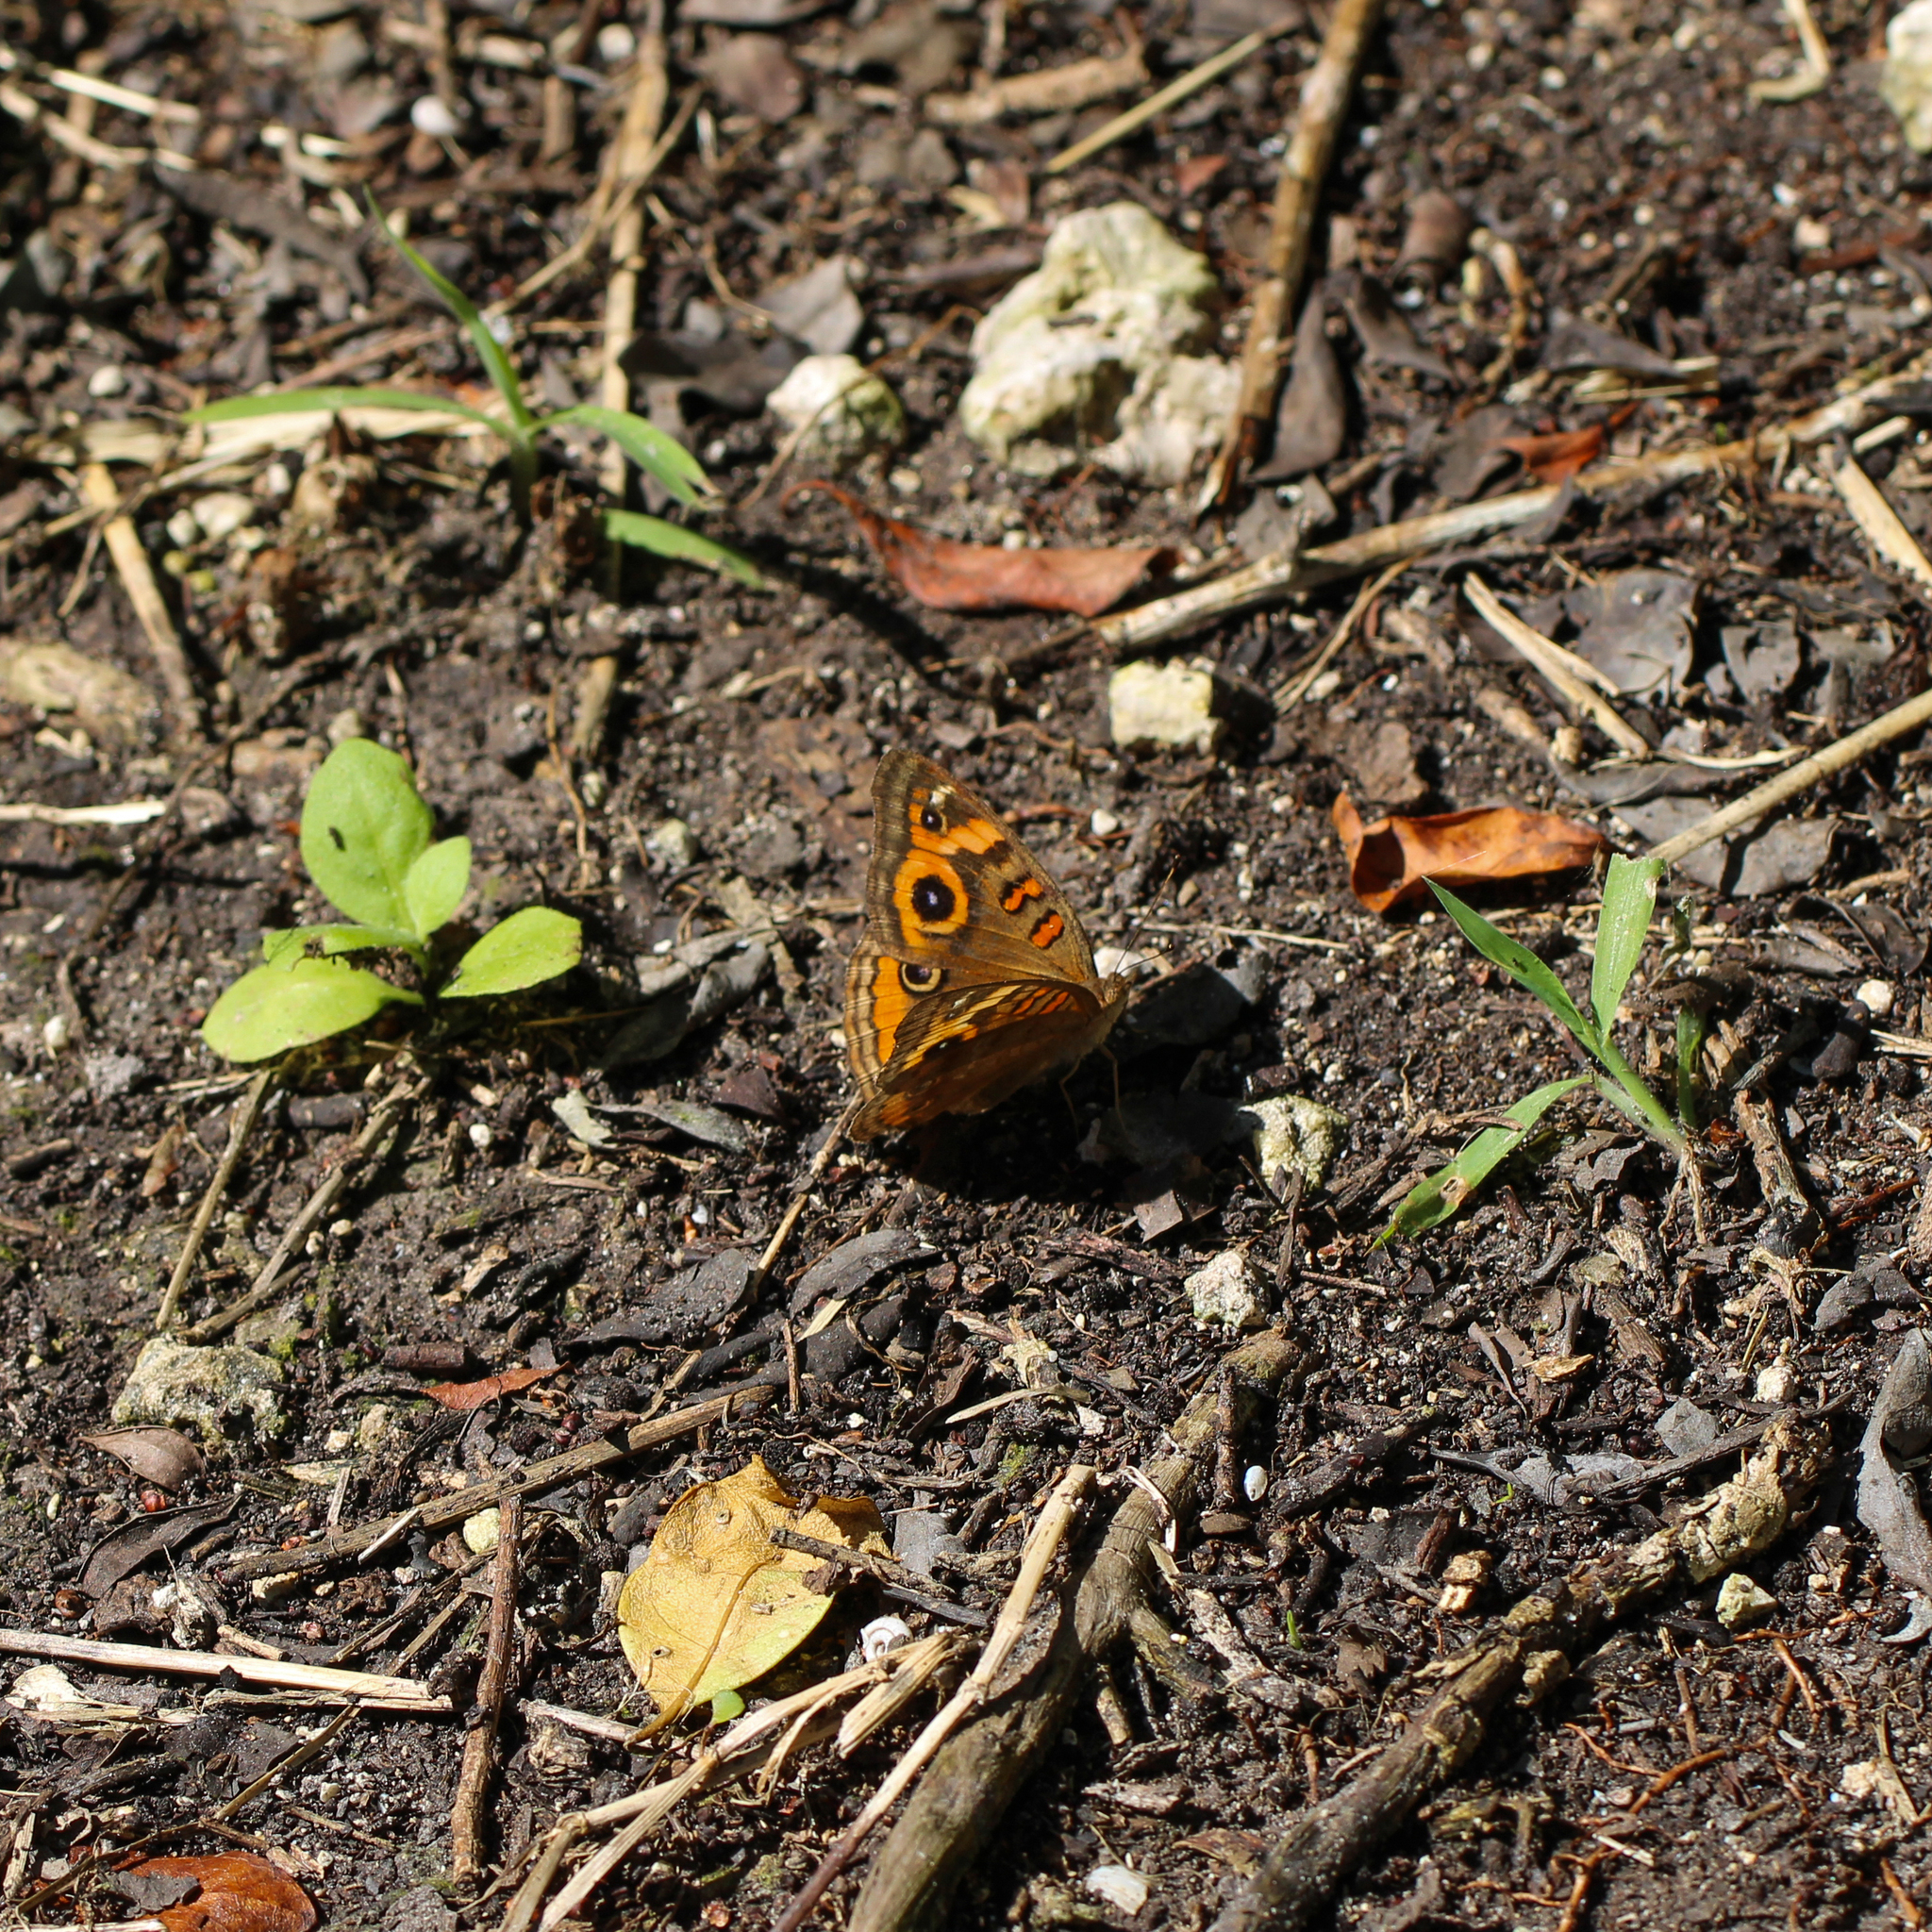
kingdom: Animalia
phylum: Arthropoda
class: Insecta
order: Lepidoptera
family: Nymphalidae
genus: Junonia
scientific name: Junonia neildi
